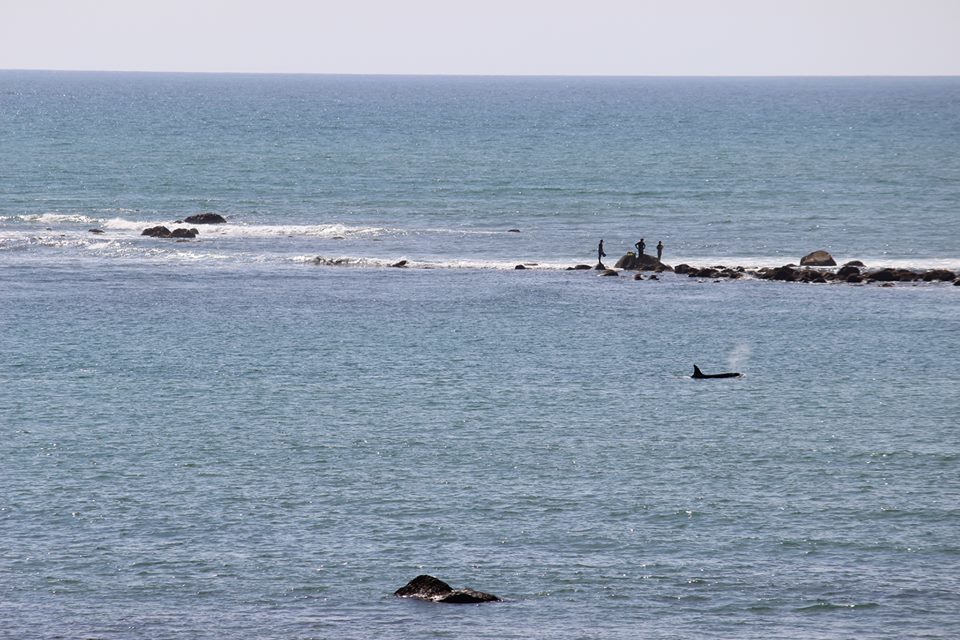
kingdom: Animalia
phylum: Chordata
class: Mammalia
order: Cetacea
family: Delphinidae
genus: Orcinus
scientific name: Orcinus orca
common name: Killer whale
